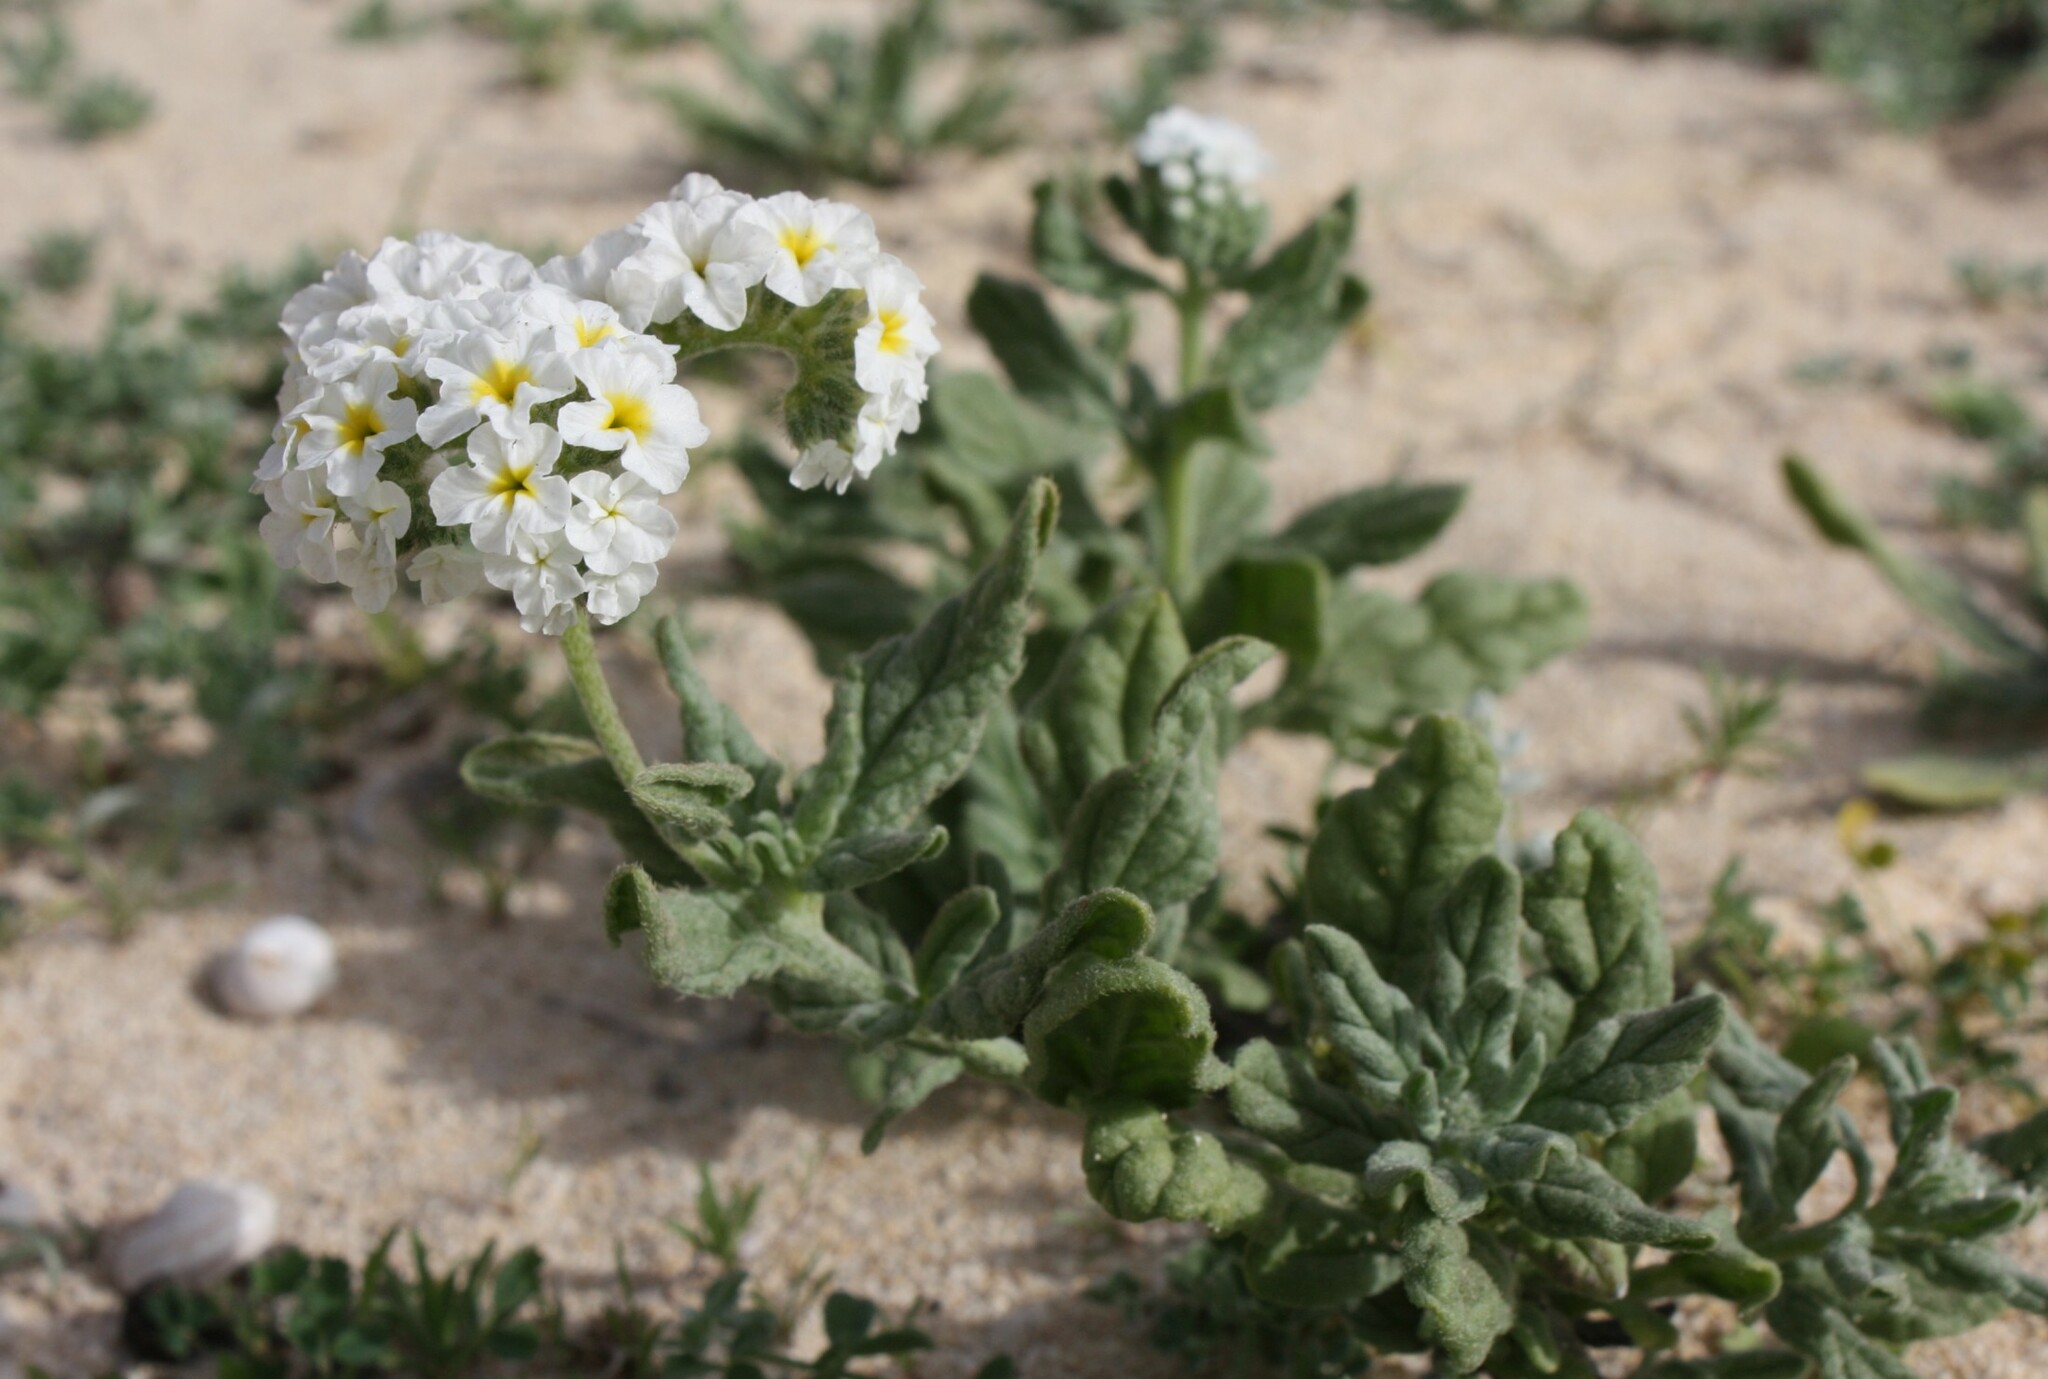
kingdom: Plantae
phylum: Tracheophyta
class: Magnoliopsida
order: Boraginales
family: Heliotropiaceae
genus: Heliotropium
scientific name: Heliotropium ramosissimum
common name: Wavy heliotrope
